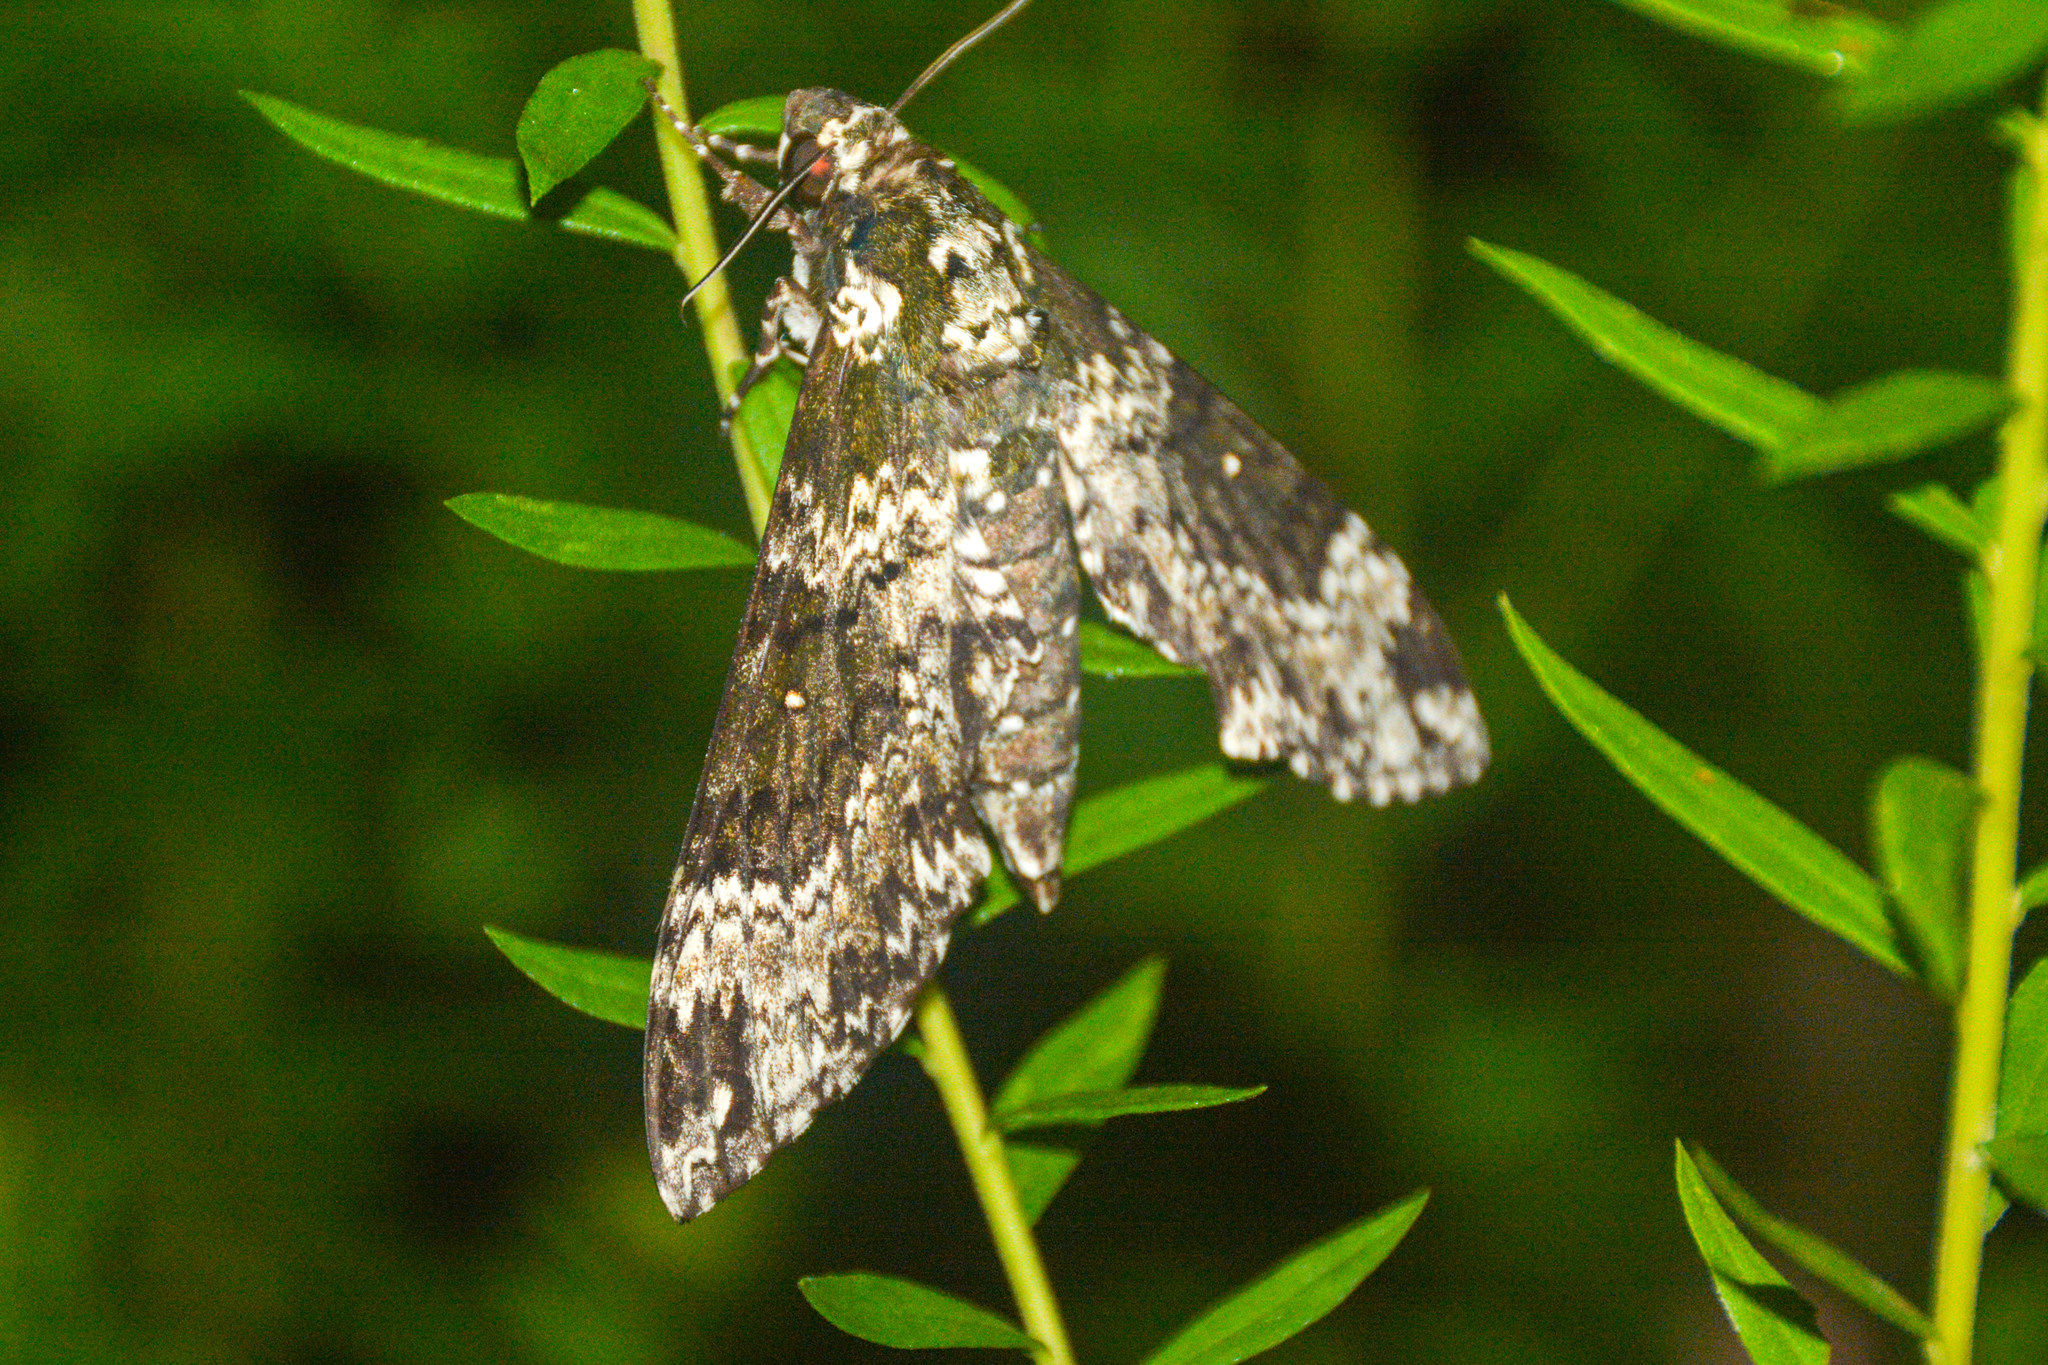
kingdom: Animalia
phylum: Arthropoda
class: Insecta
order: Lepidoptera
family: Sphingidae
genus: Manduca
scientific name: Manduca rustica
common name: Rustic sphinx
